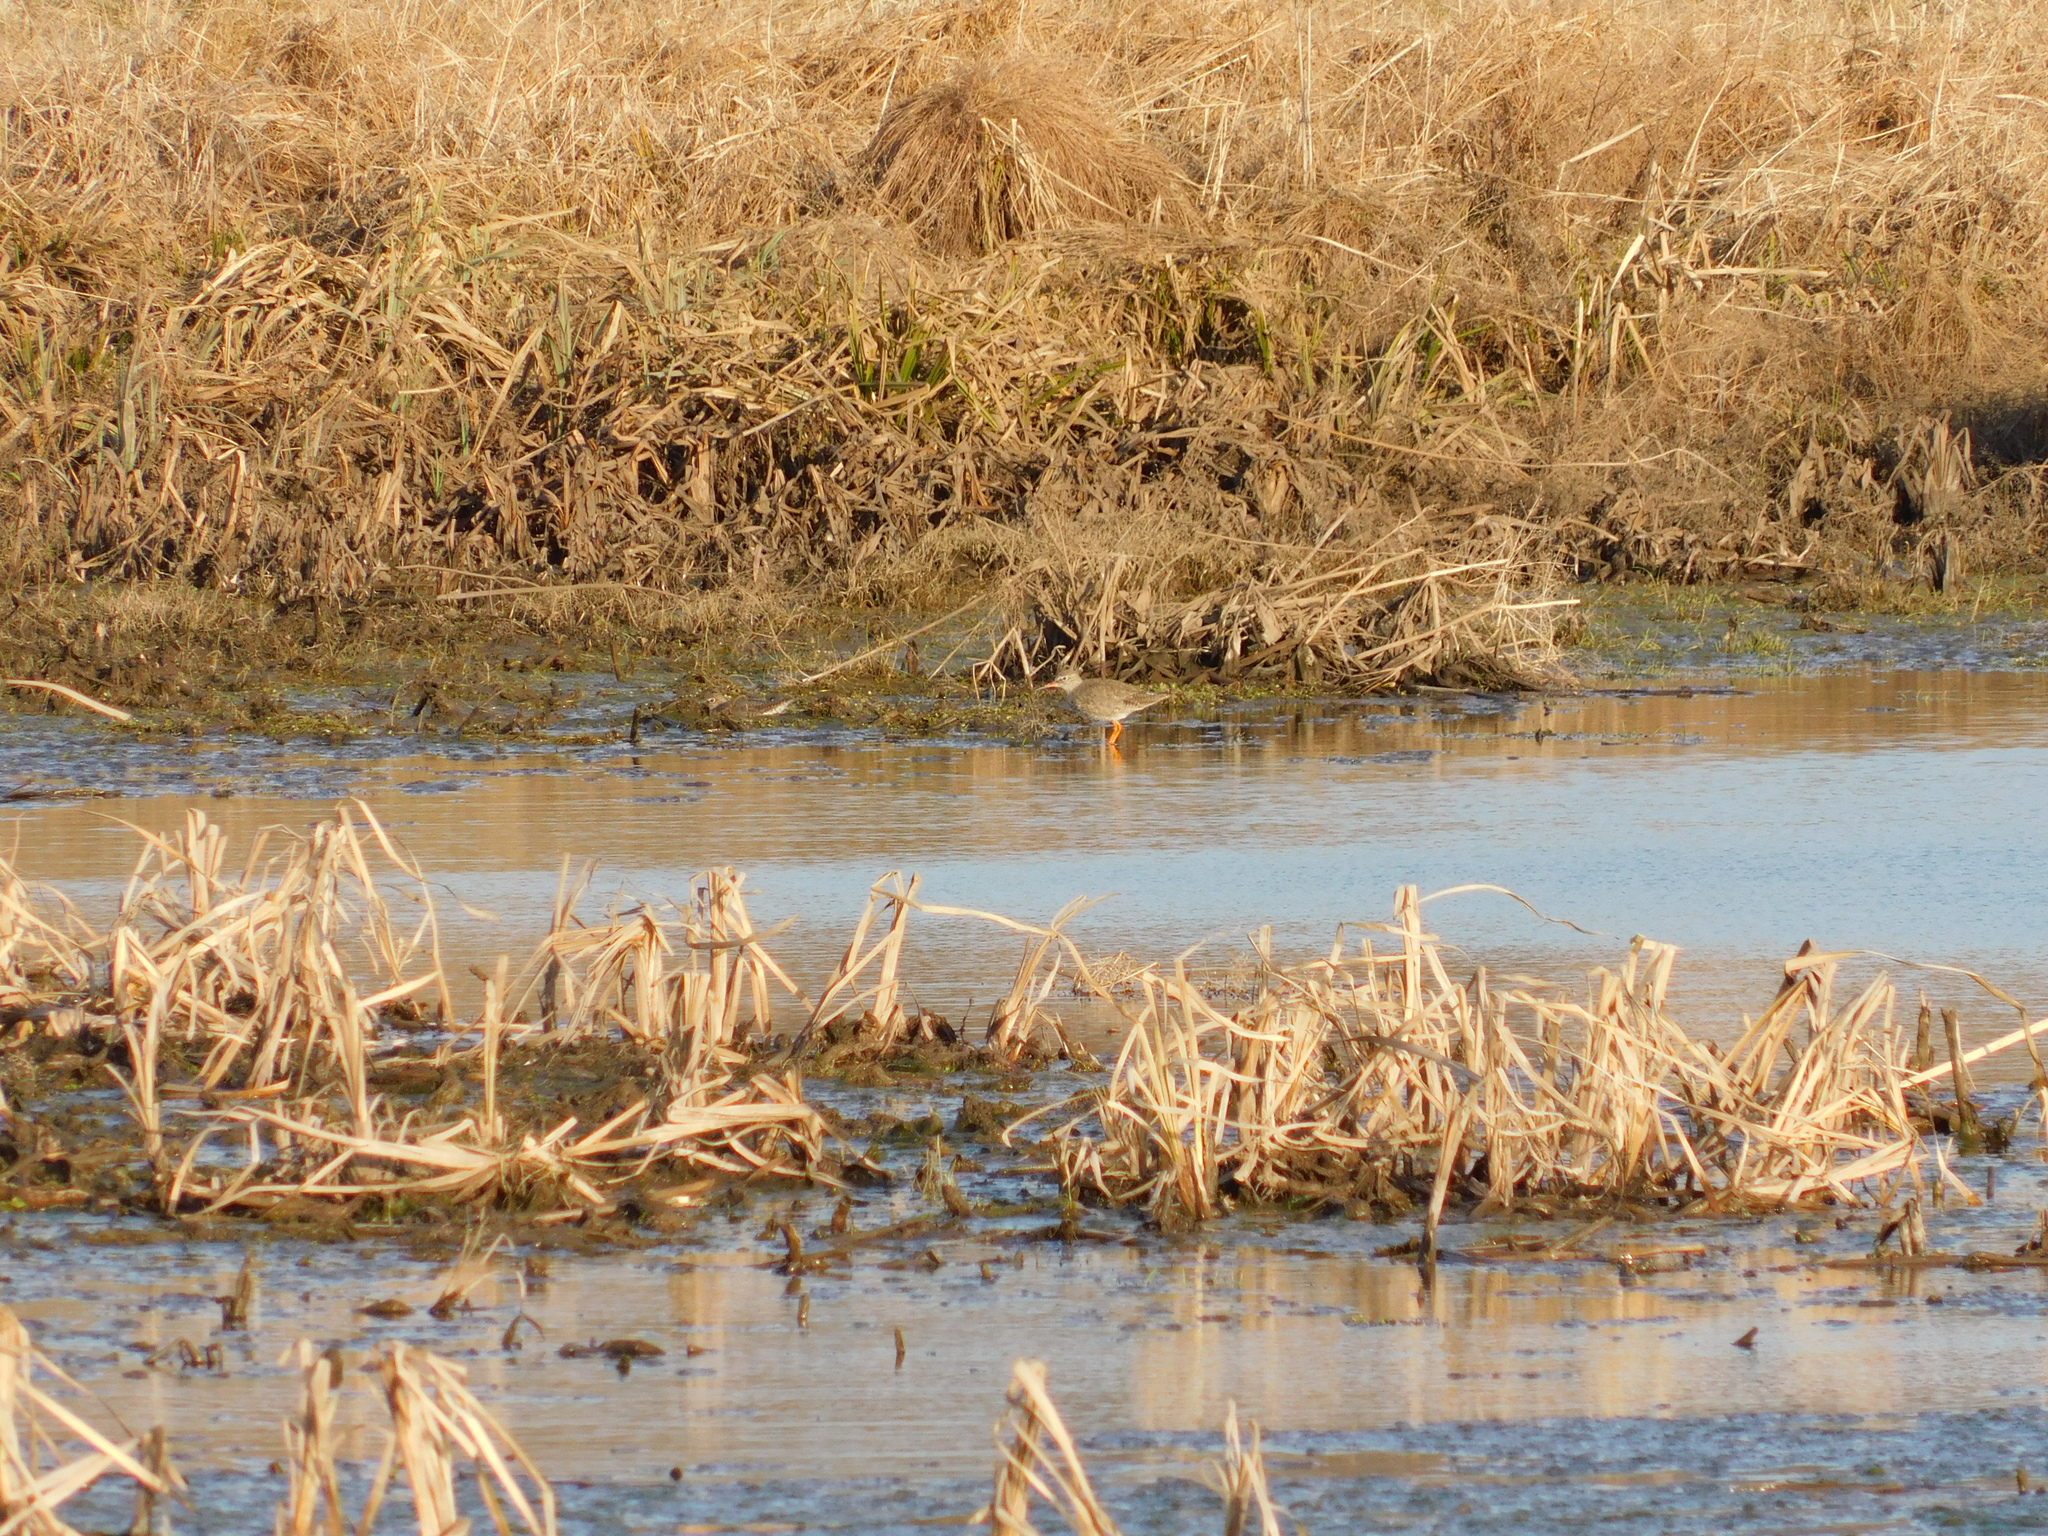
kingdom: Animalia
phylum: Chordata
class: Aves
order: Charadriiformes
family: Scolopacidae
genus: Tringa
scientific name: Tringa totanus
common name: Common redshank
